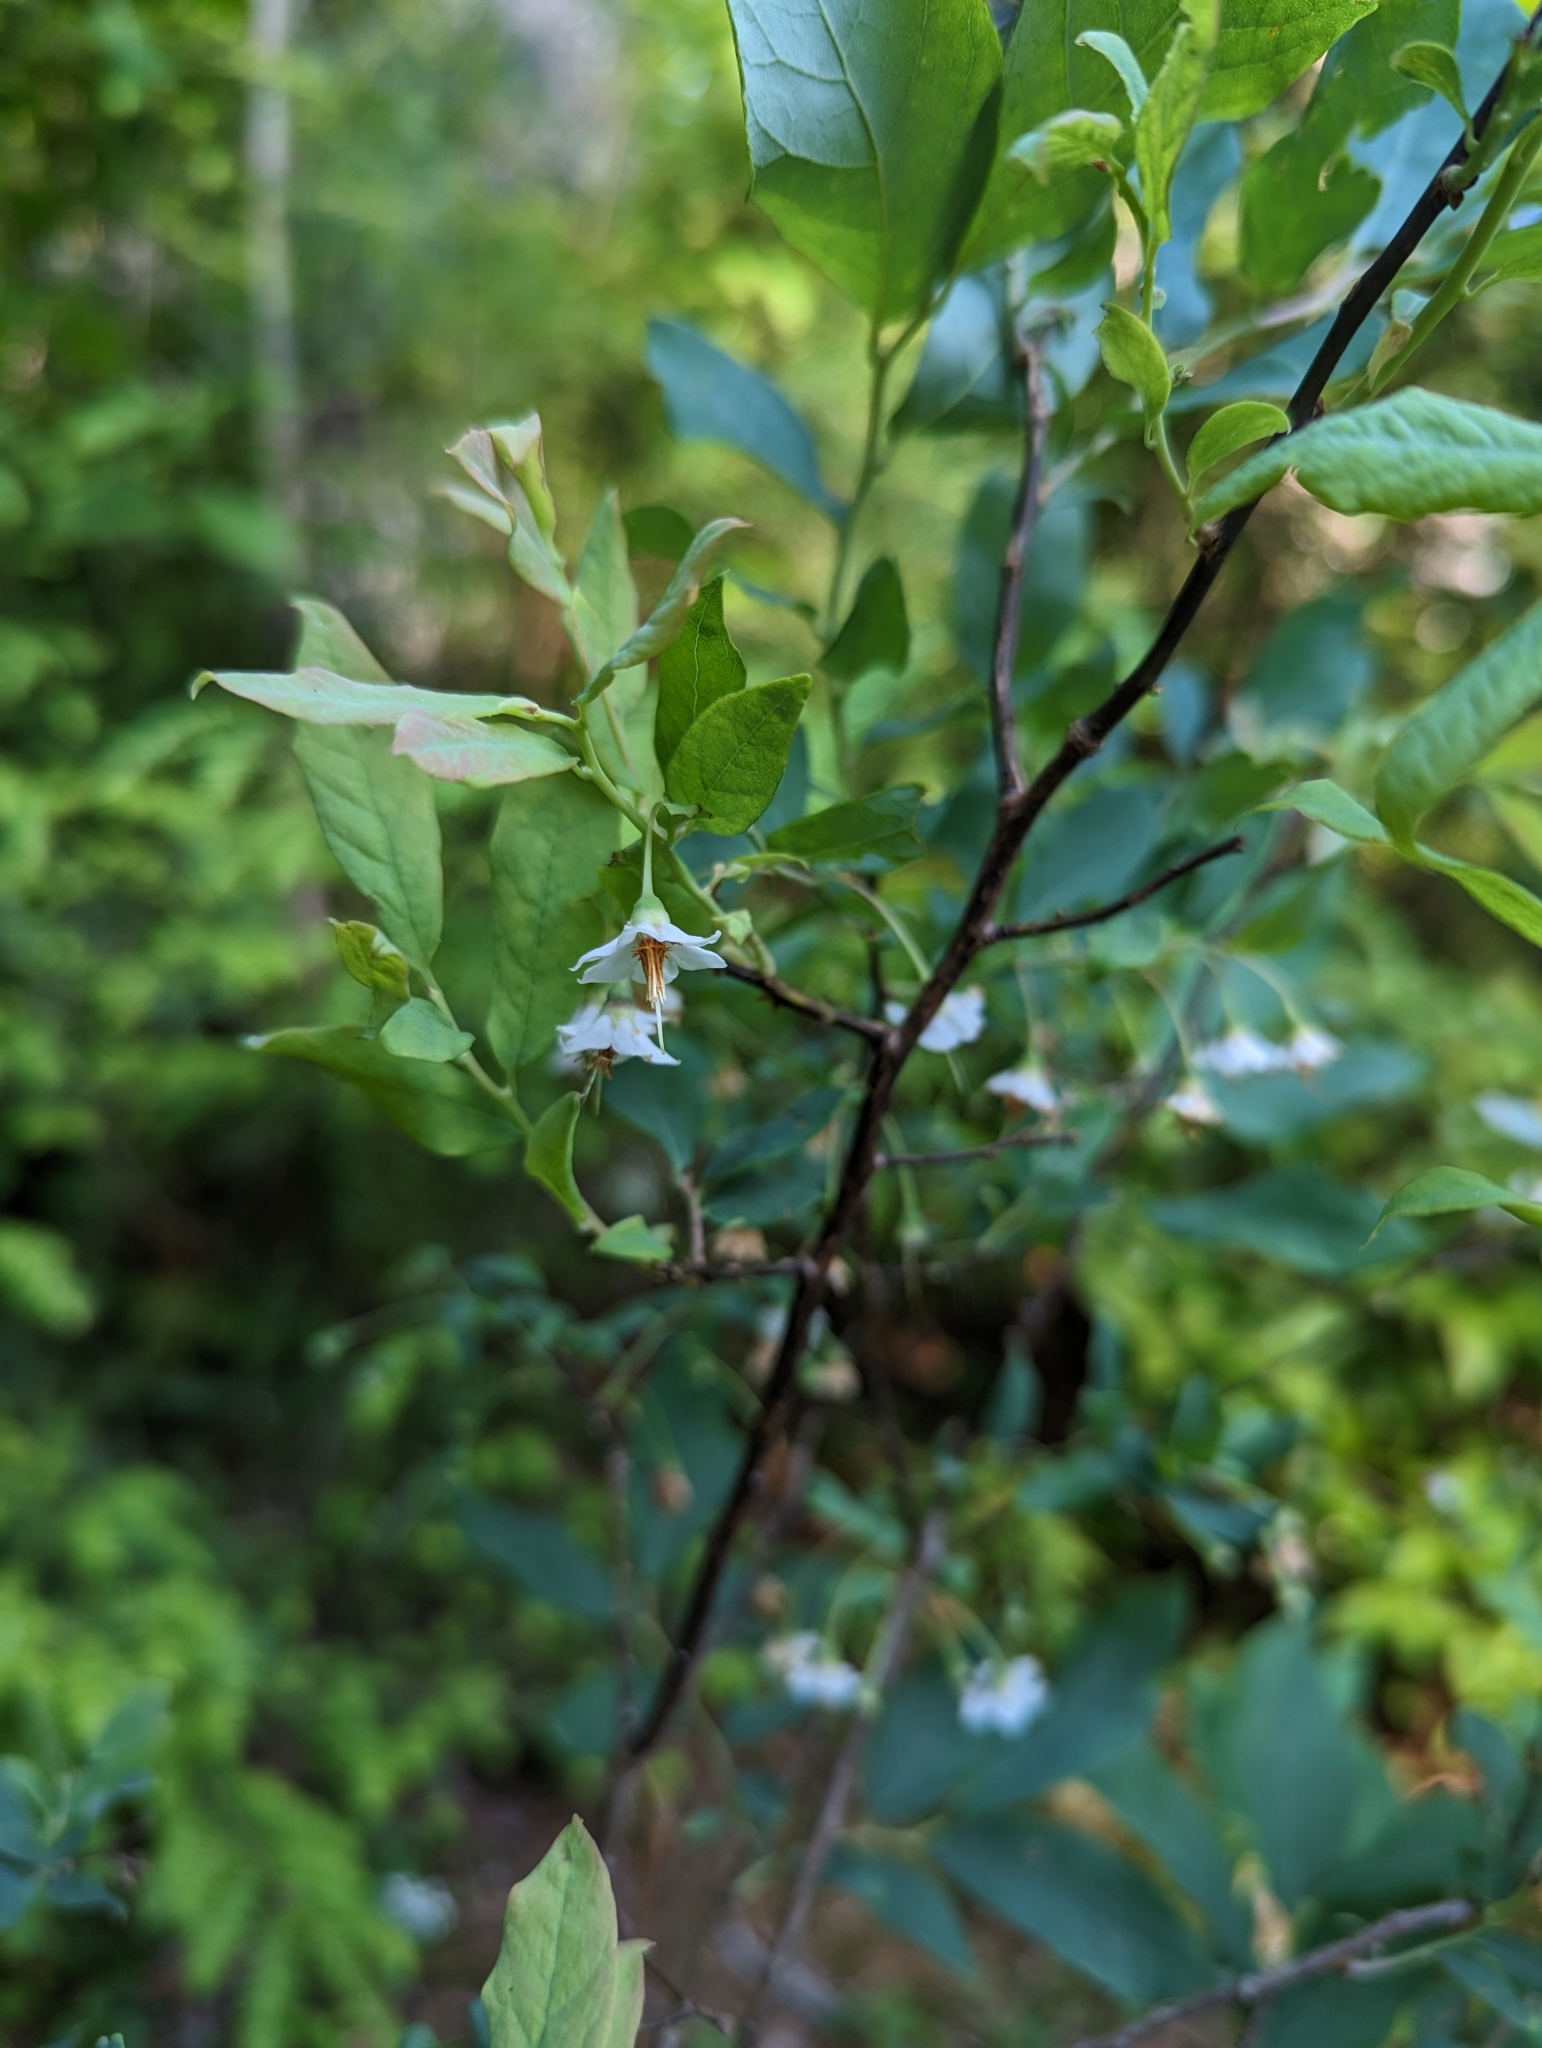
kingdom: Plantae
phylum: Tracheophyta
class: Magnoliopsida
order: Ericales
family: Ericaceae
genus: Vaccinium
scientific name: Vaccinium stamineum
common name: Deerberry
